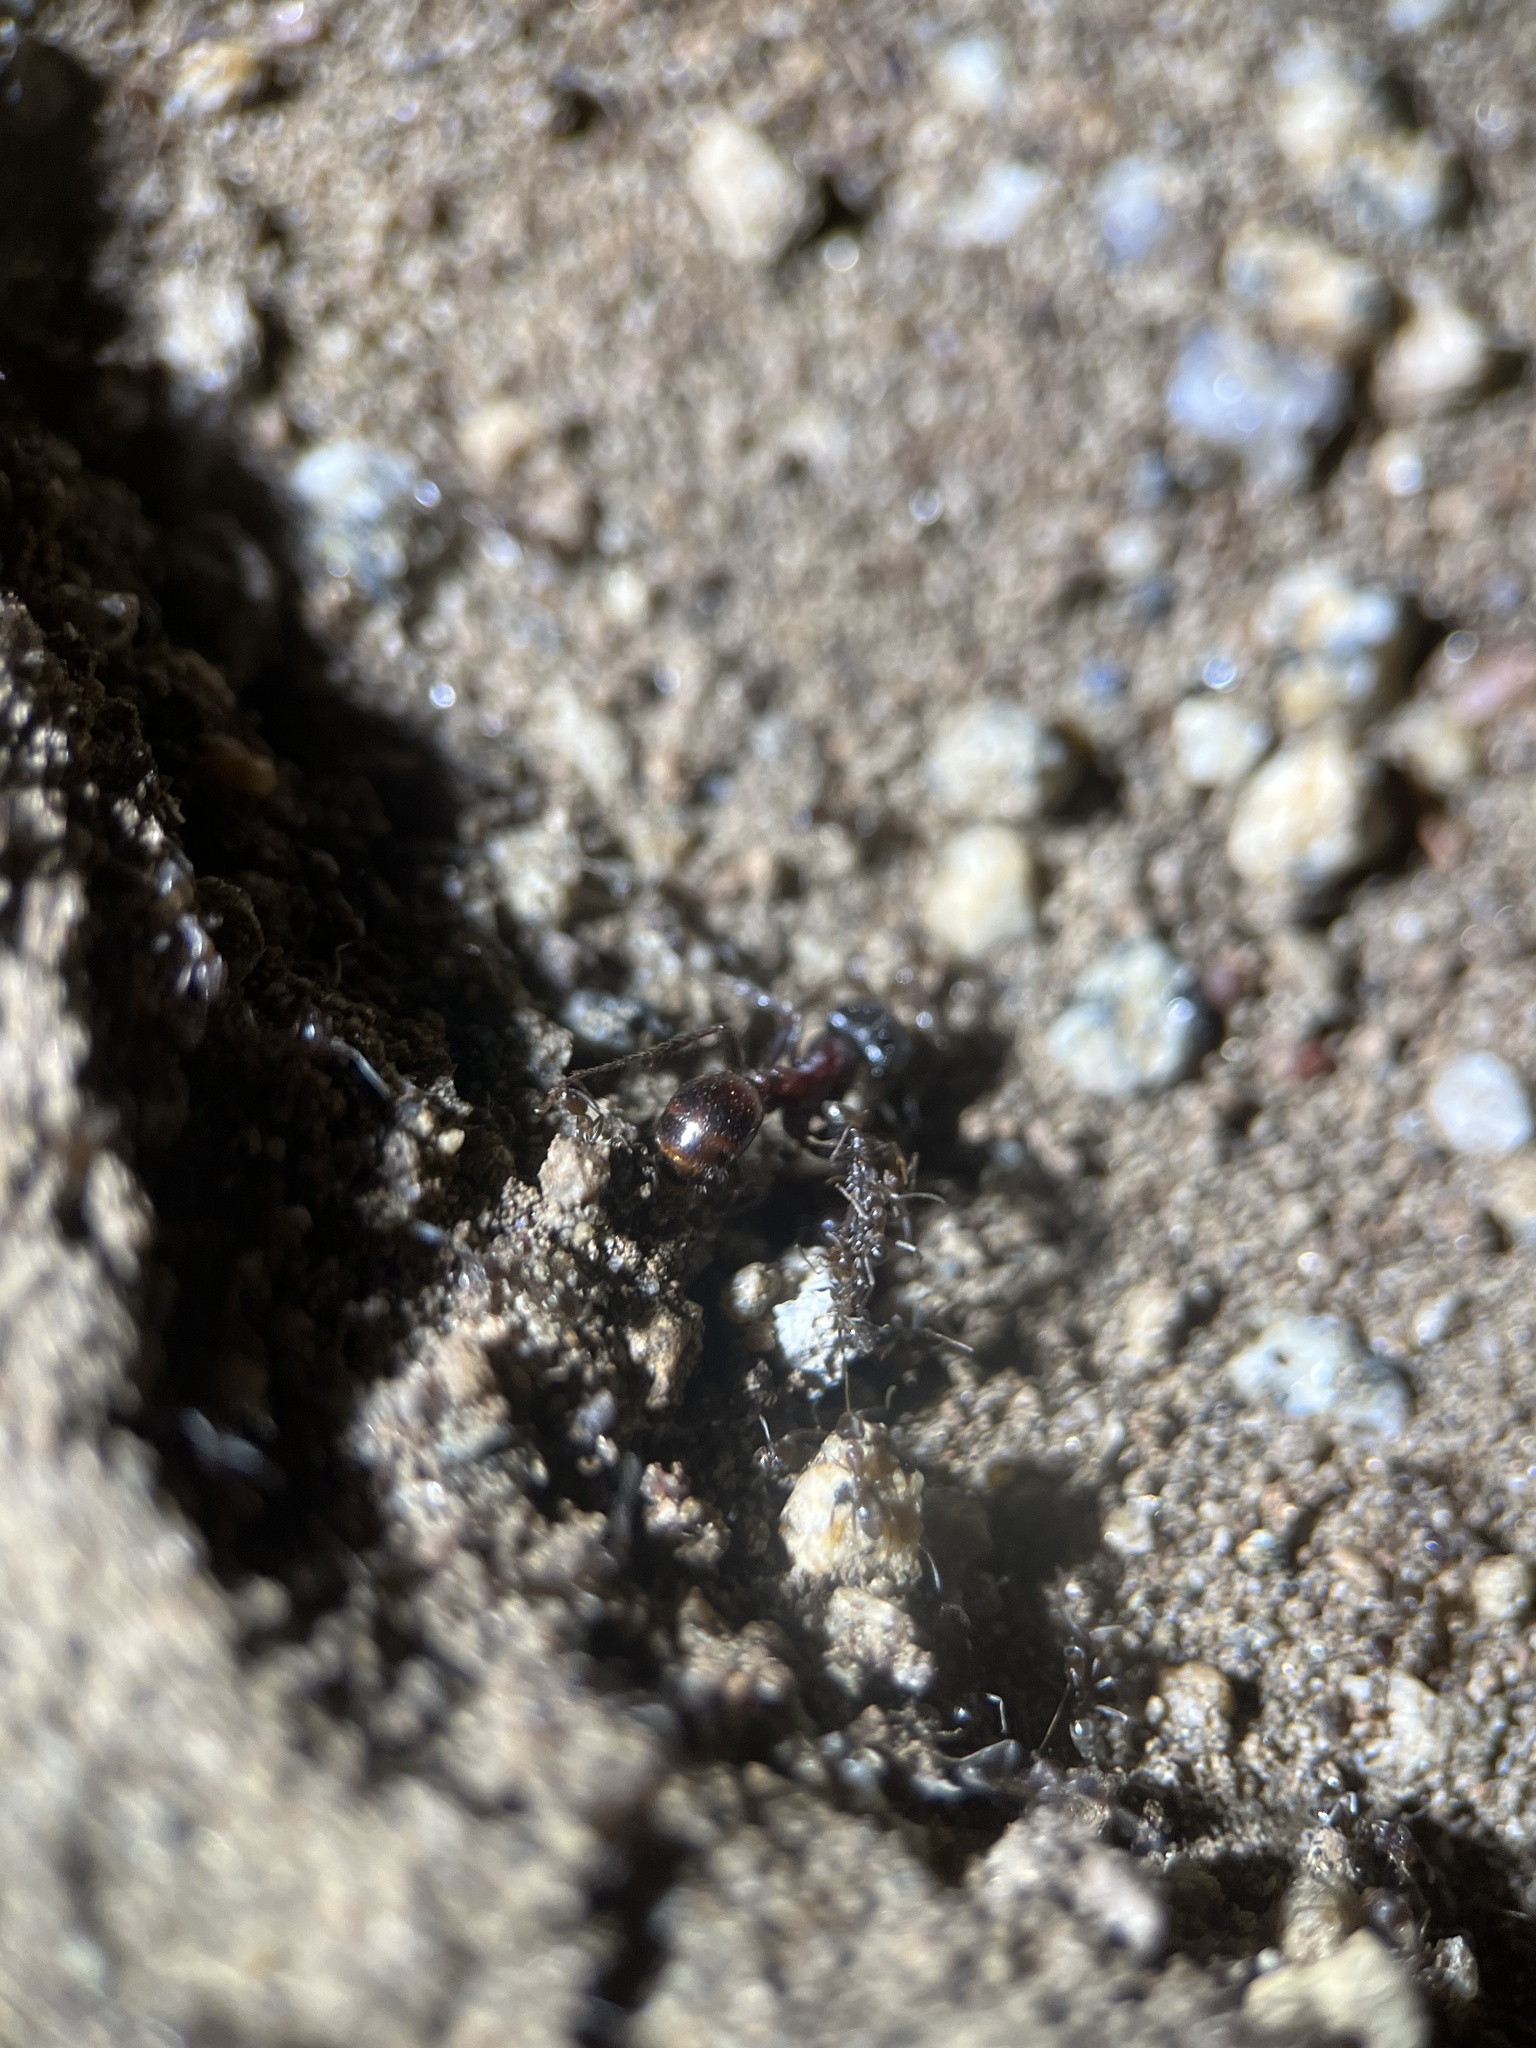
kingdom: Animalia
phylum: Arthropoda
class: Insecta
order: Hymenoptera
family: Formicidae
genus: Pogonomyrmex
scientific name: Pogonomyrmex rugosus
